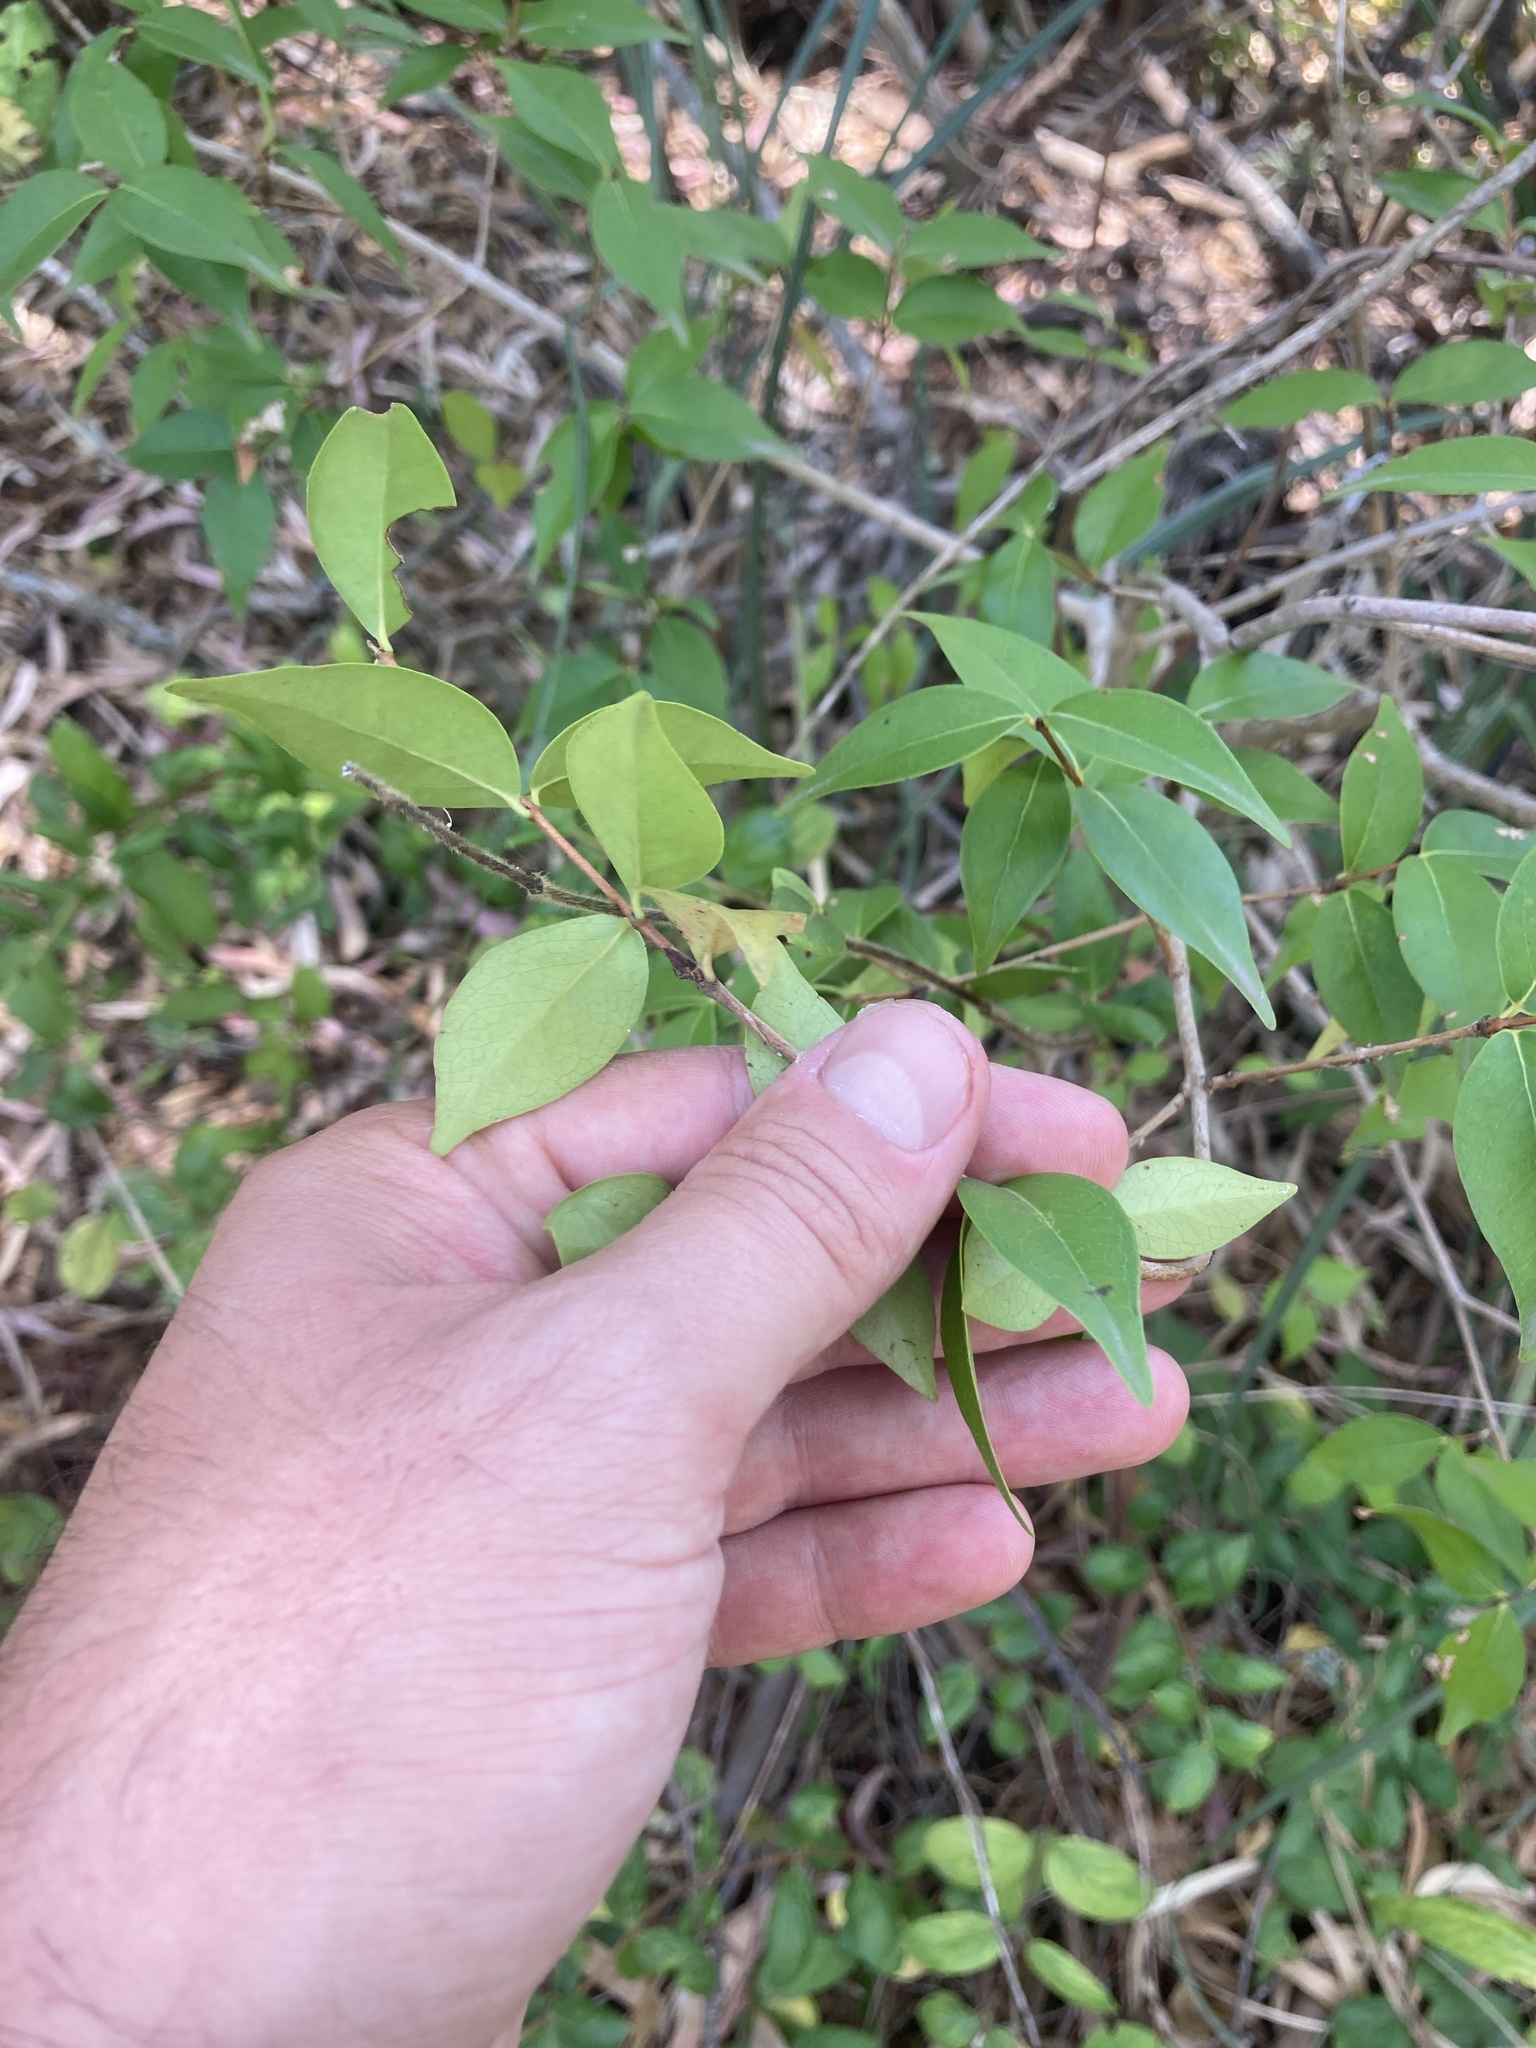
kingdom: Plantae
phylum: Tracheophyta
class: Magnoliopsida
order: Myrtales
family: Myrtaceae
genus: Eugenia
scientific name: Eugenia uniflora
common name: Surinam cherry
